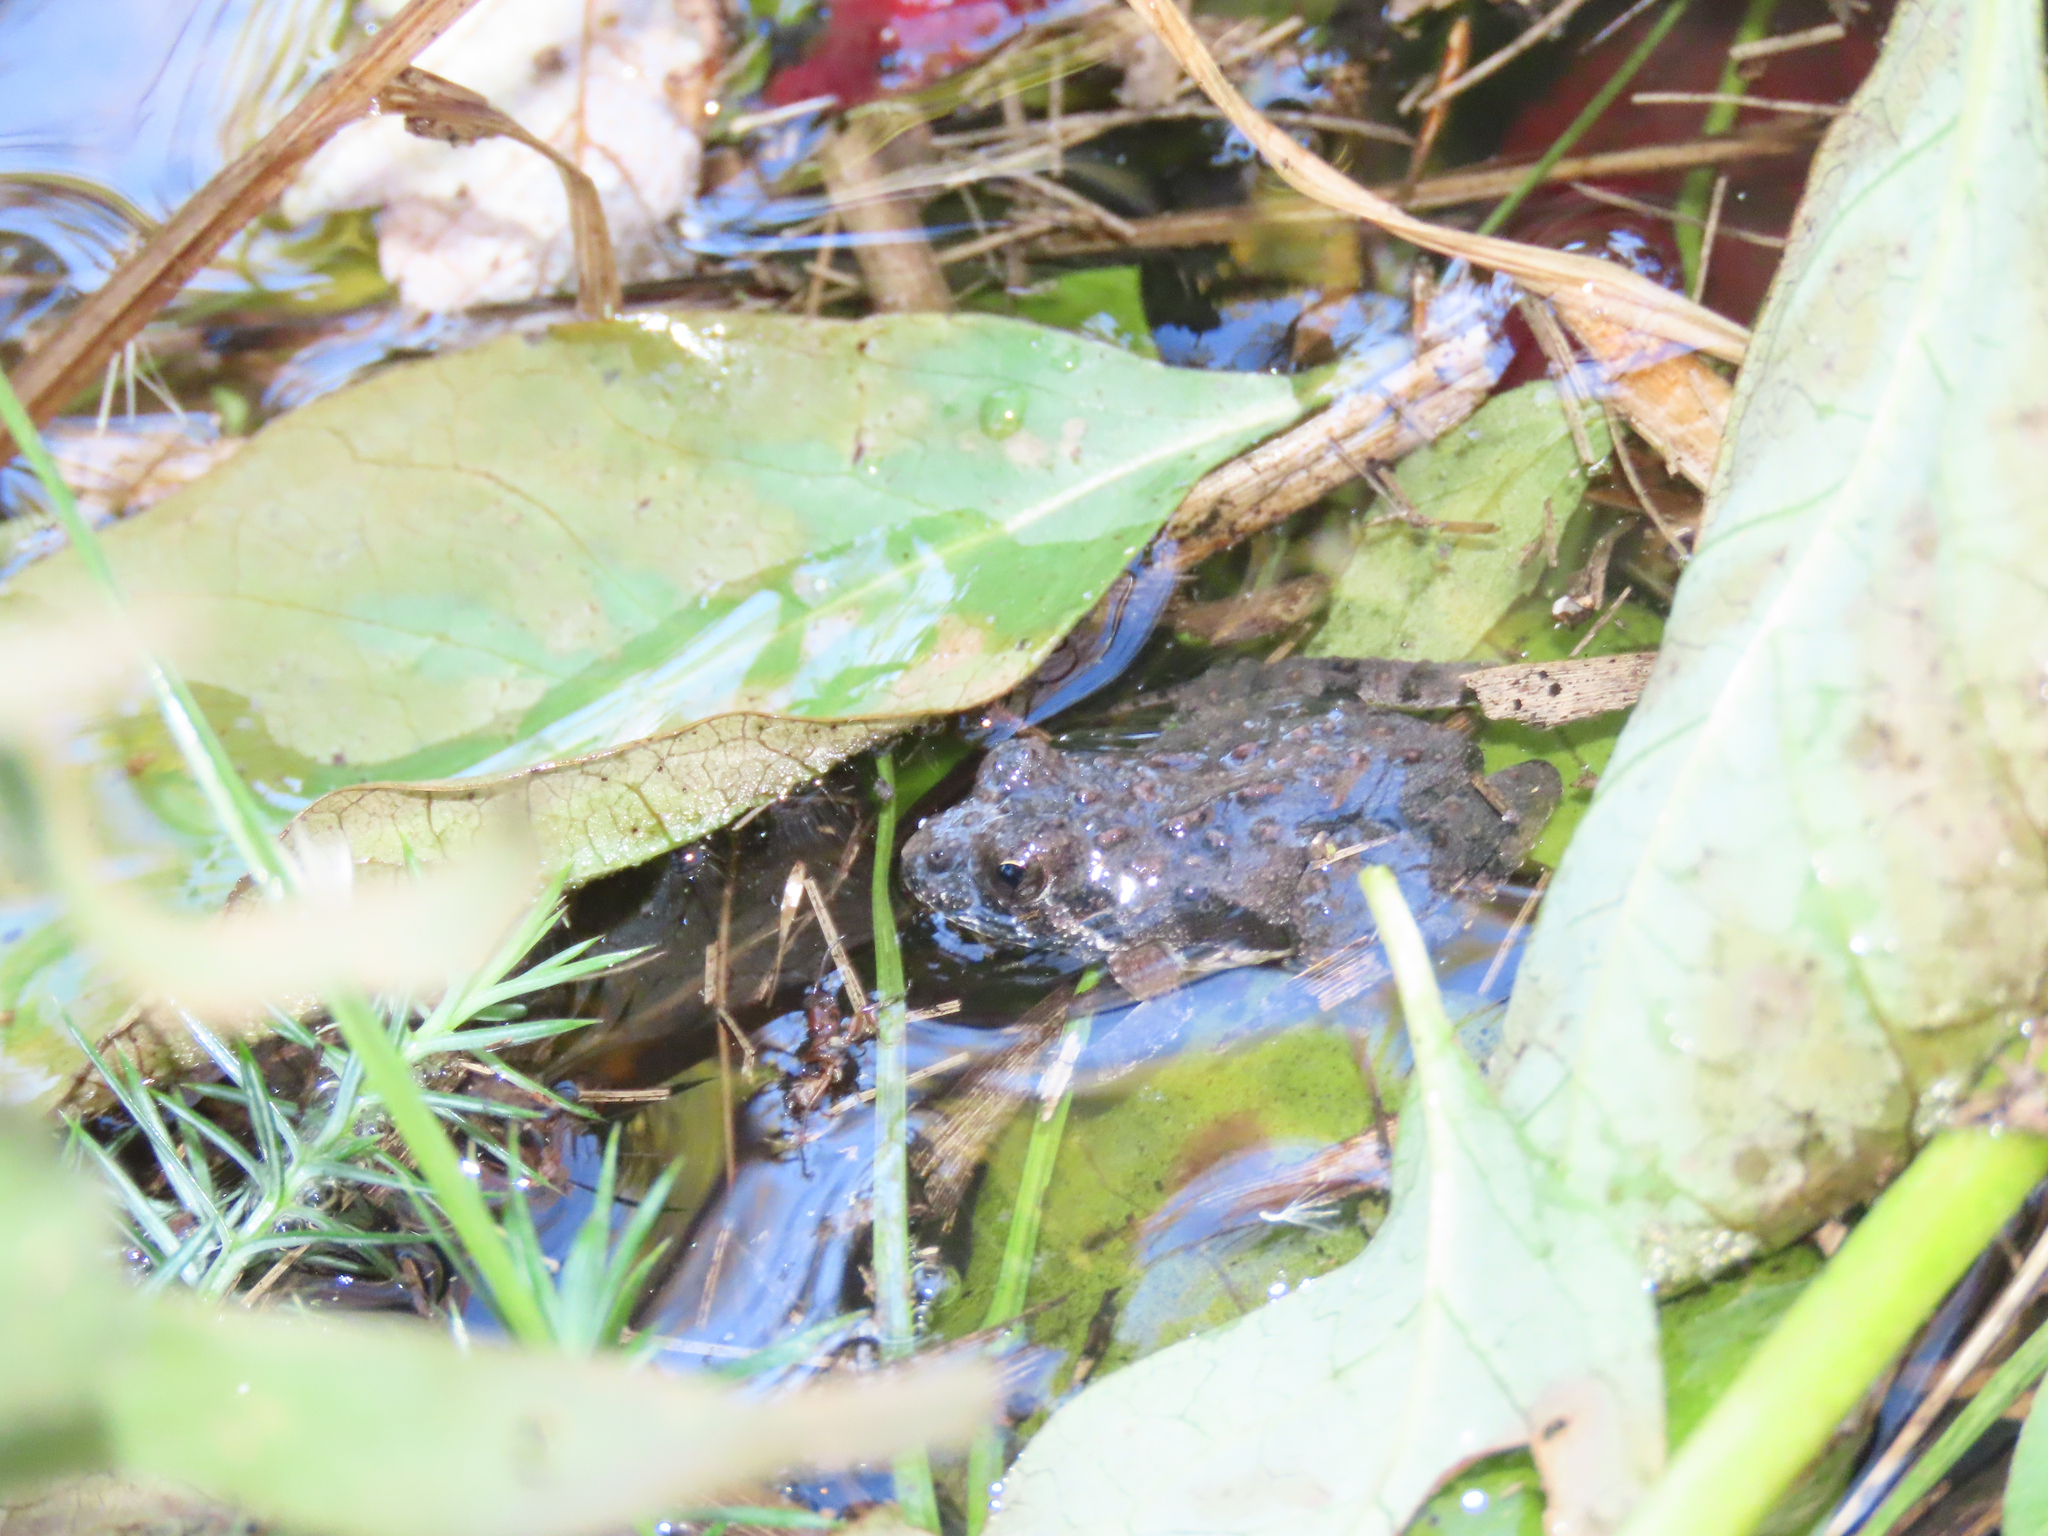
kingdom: Animalia
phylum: Chordata
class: Amphibia
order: Anura
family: Hylidae
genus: Acris
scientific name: Acris crepitans
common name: Northern cricket frog
